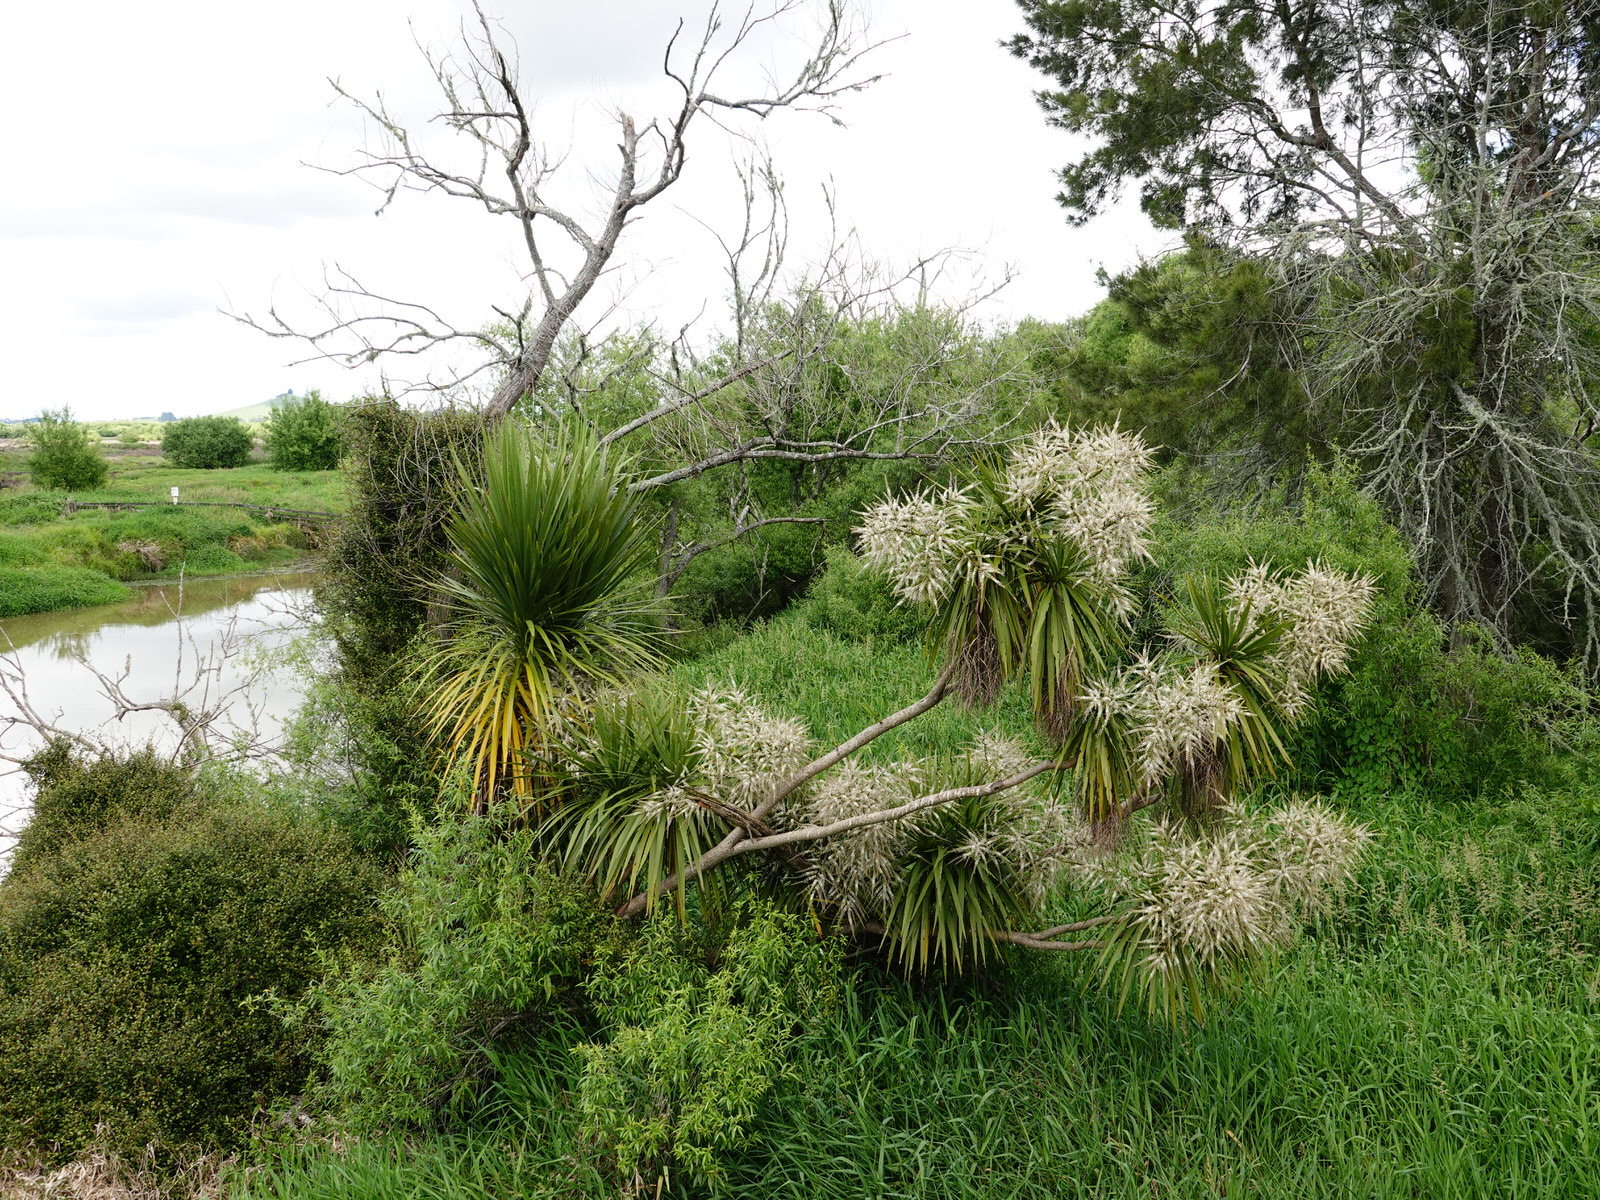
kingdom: Plantae
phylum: Tracheophyta
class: Liliopsida
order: Asparagales
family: Asparagaceae
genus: Cordyline
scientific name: Cordyline australis
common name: Cabbage-palm
